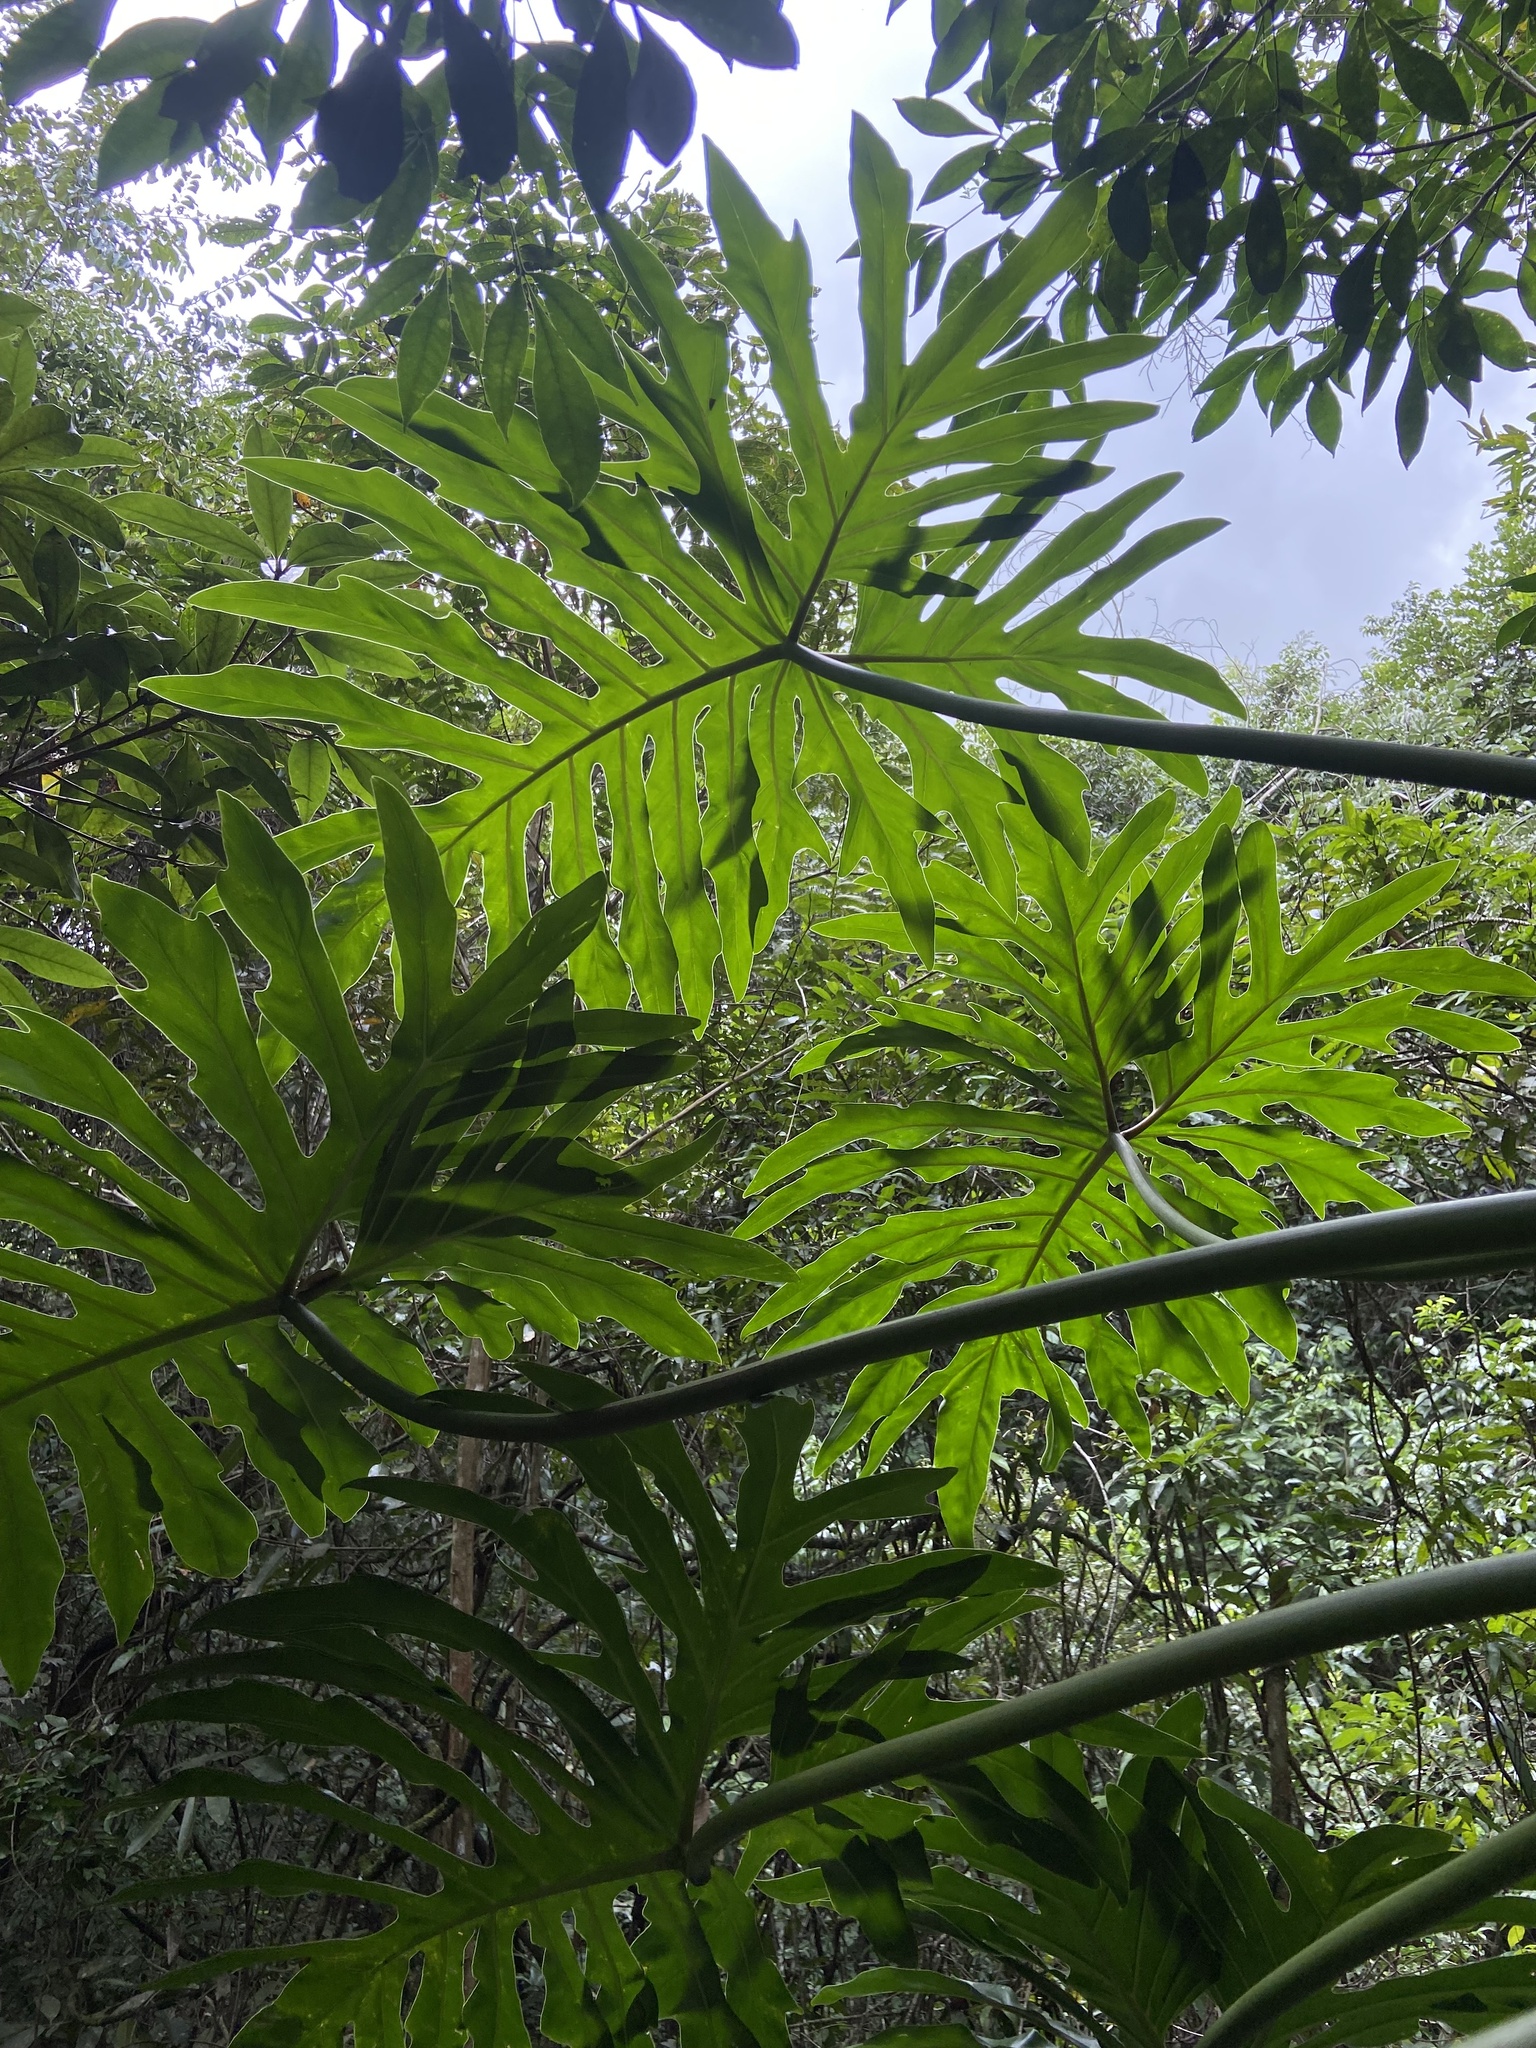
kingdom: Plantae
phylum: Tracheophyta
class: Liliopsida
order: Alismatales
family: Araceae
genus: Thaumatophyllum
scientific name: Thaumatophyllum bipinnatifidum
